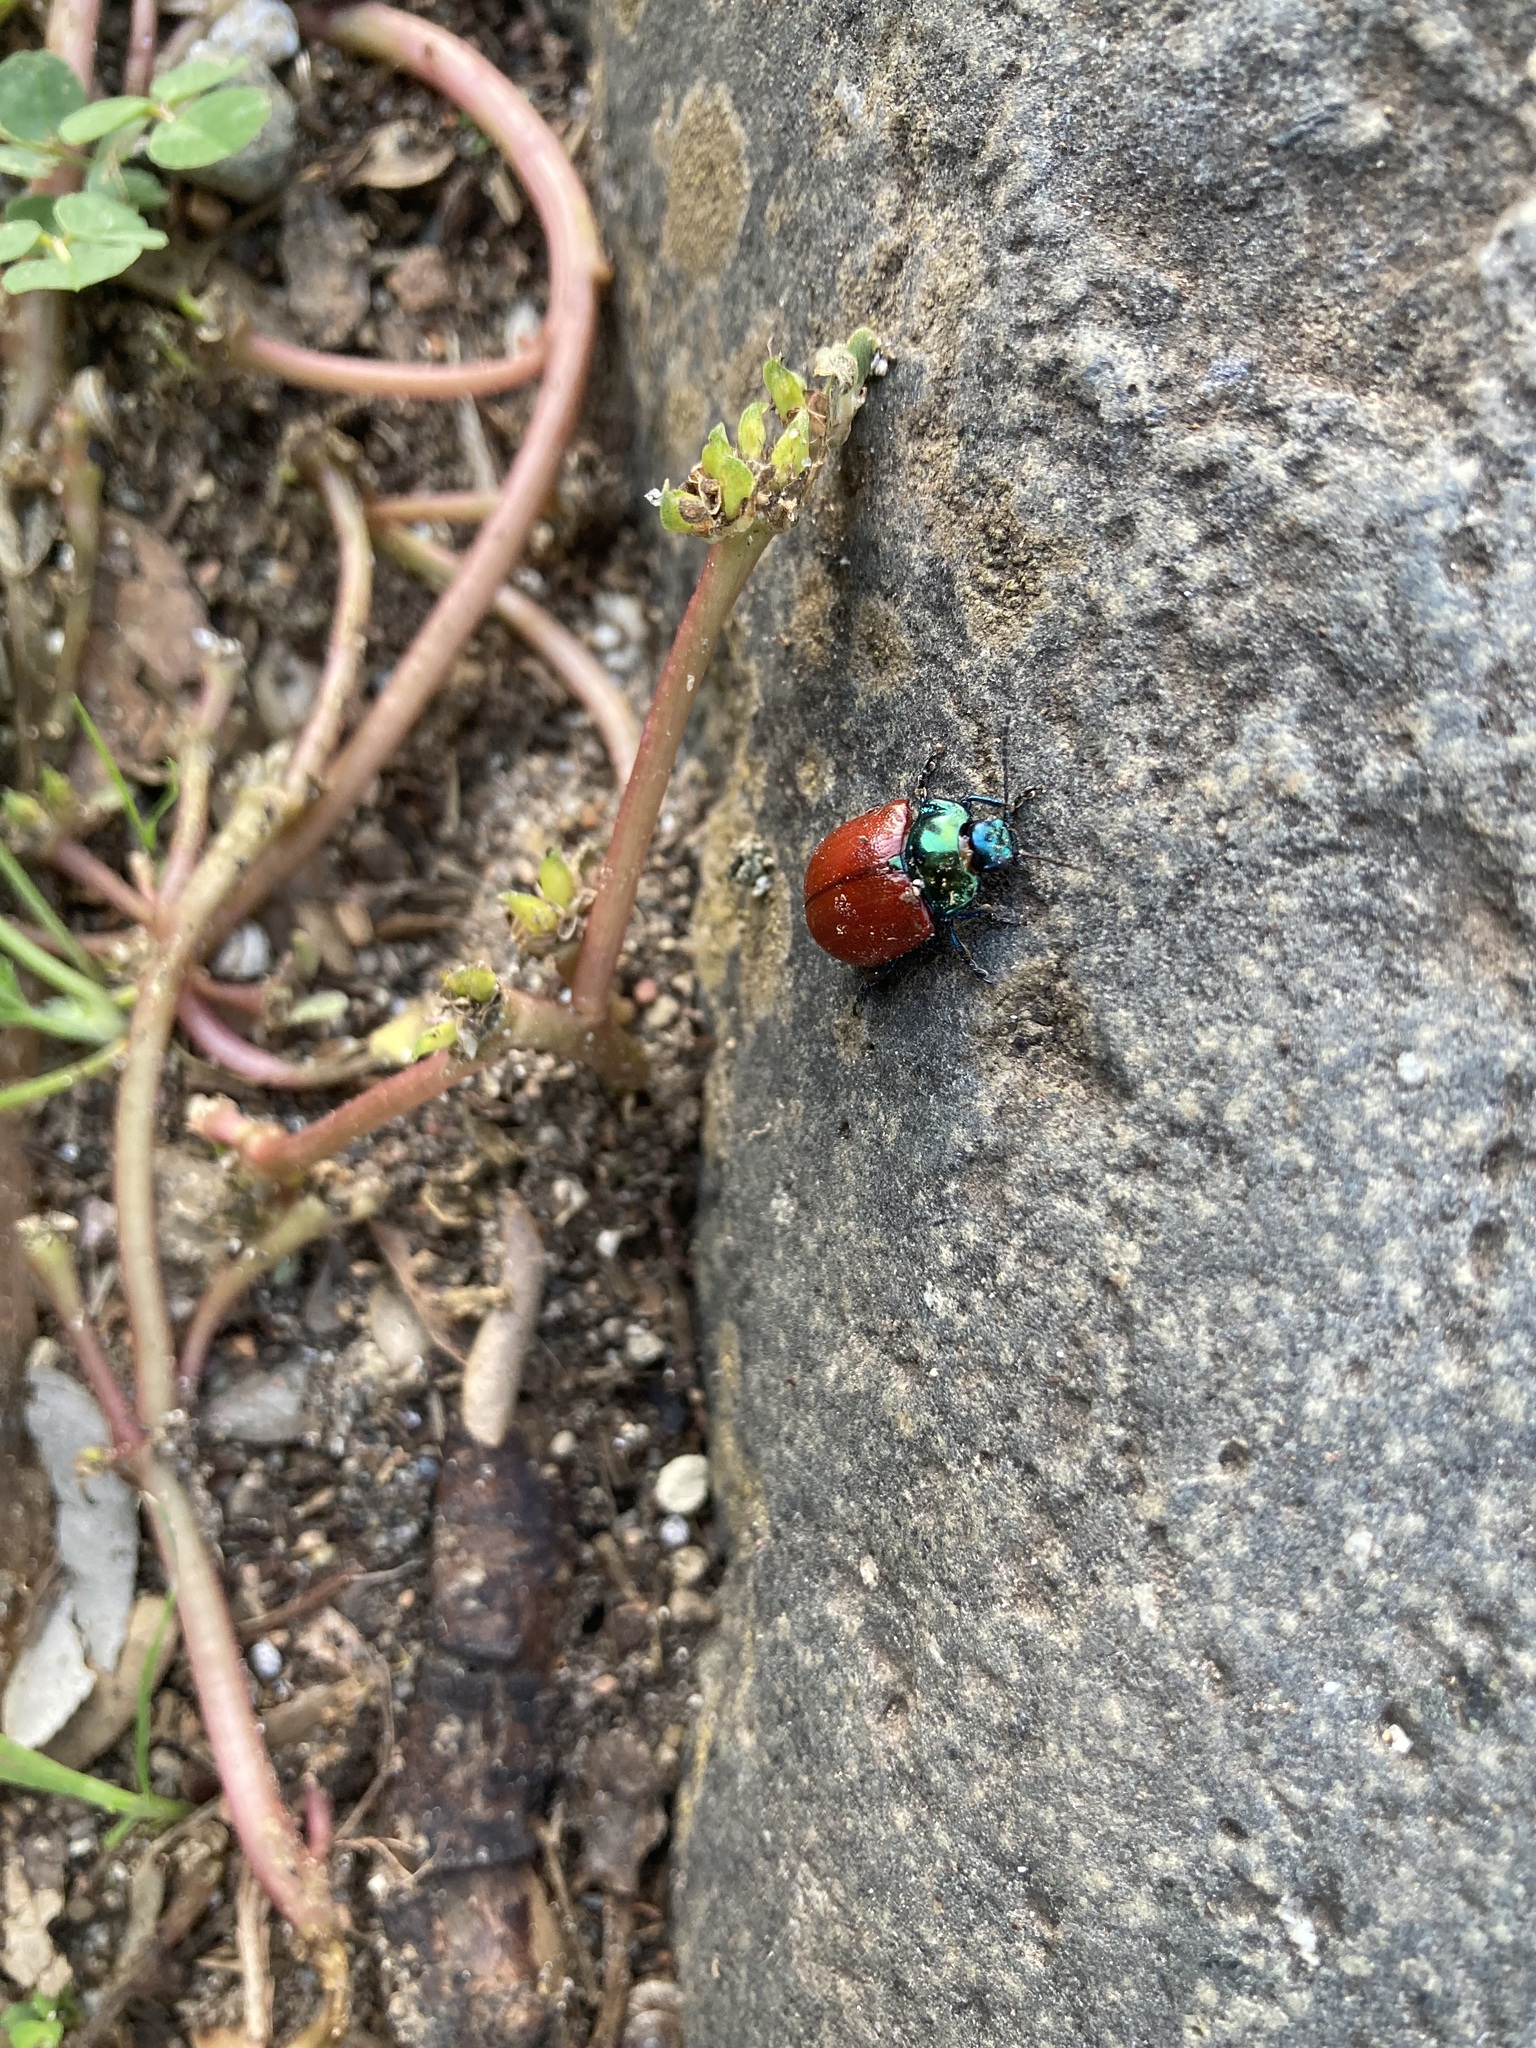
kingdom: Animalia
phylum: Arthropoda
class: Insecta
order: Coleoptera
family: Chrysomelidae
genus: Chrysolina
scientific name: Chrysolina grossa
